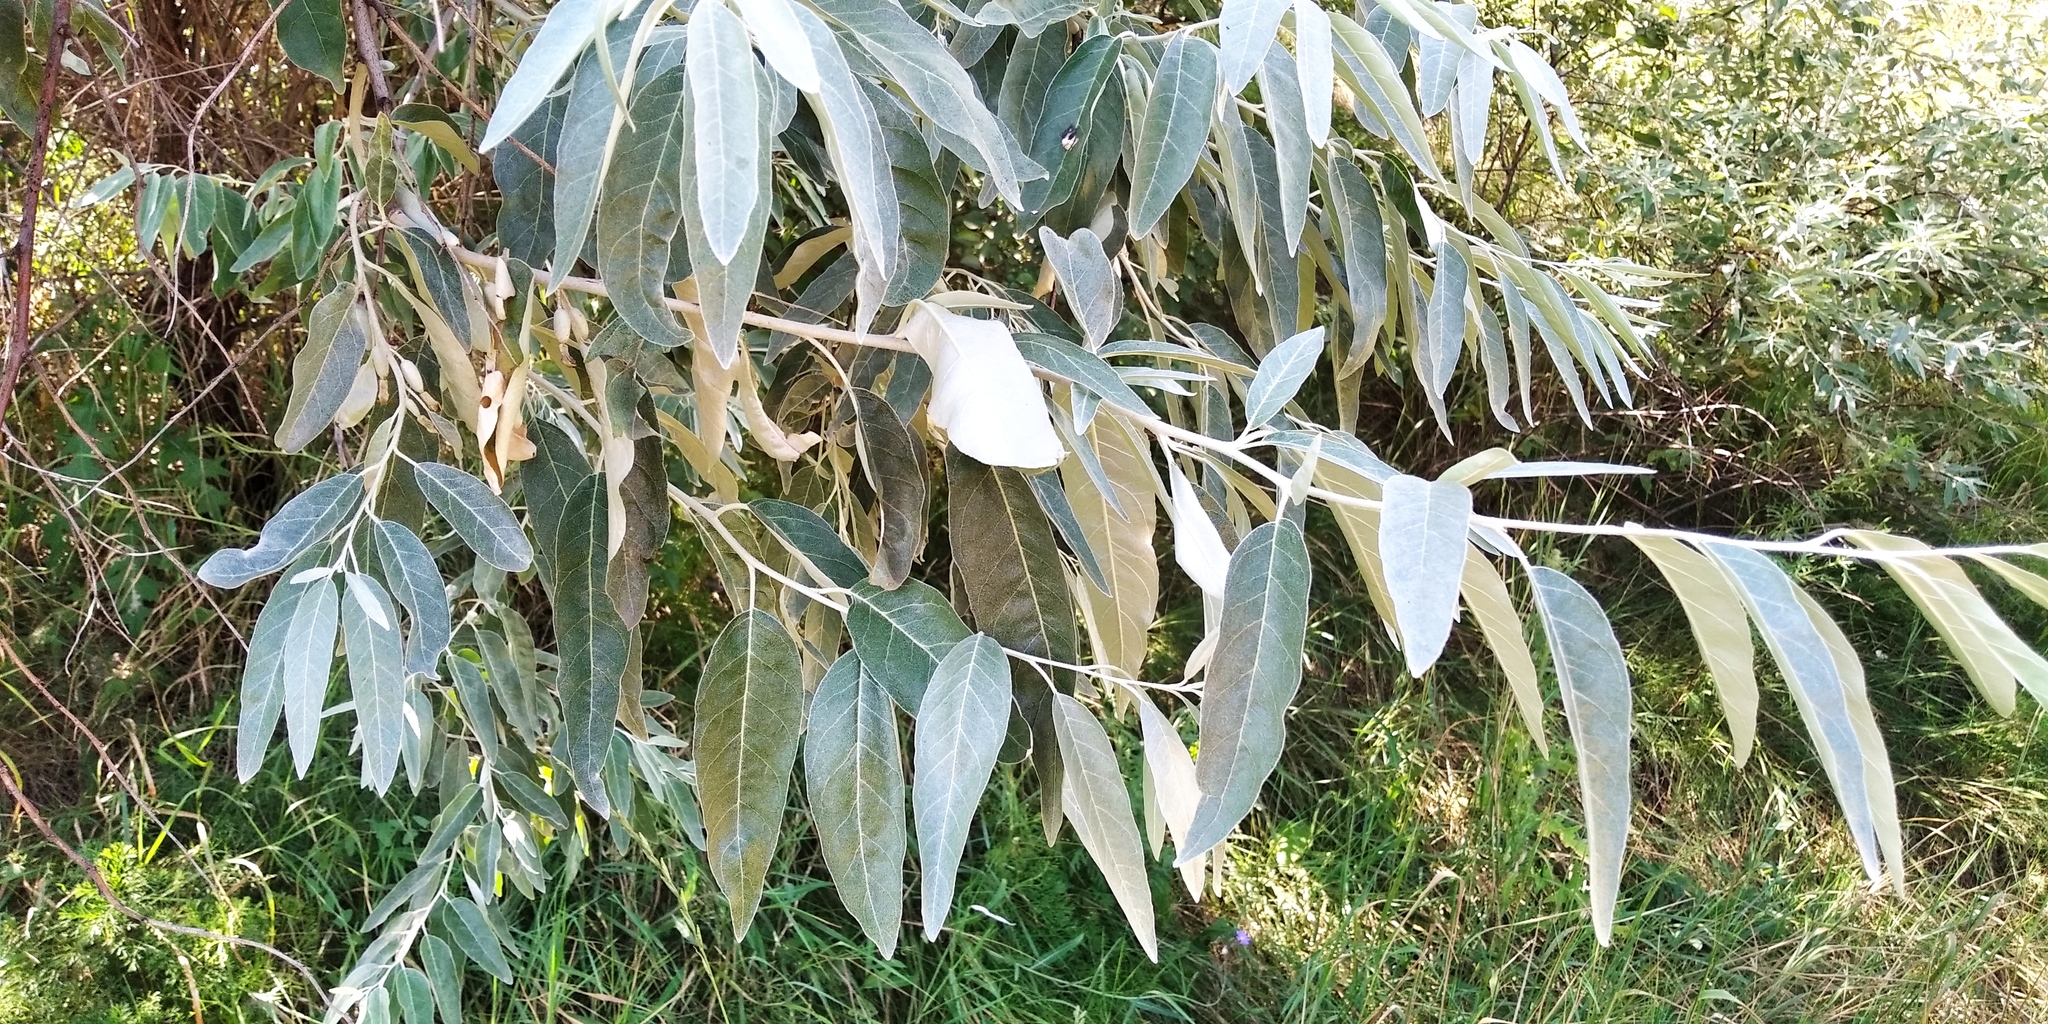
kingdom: Plantae
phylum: Tracheophyta
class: Magnoliopsida
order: Rosales
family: Elaeagnaceae
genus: Elaeagnus
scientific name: Elaeagnus angustifolia
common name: Russian olive
